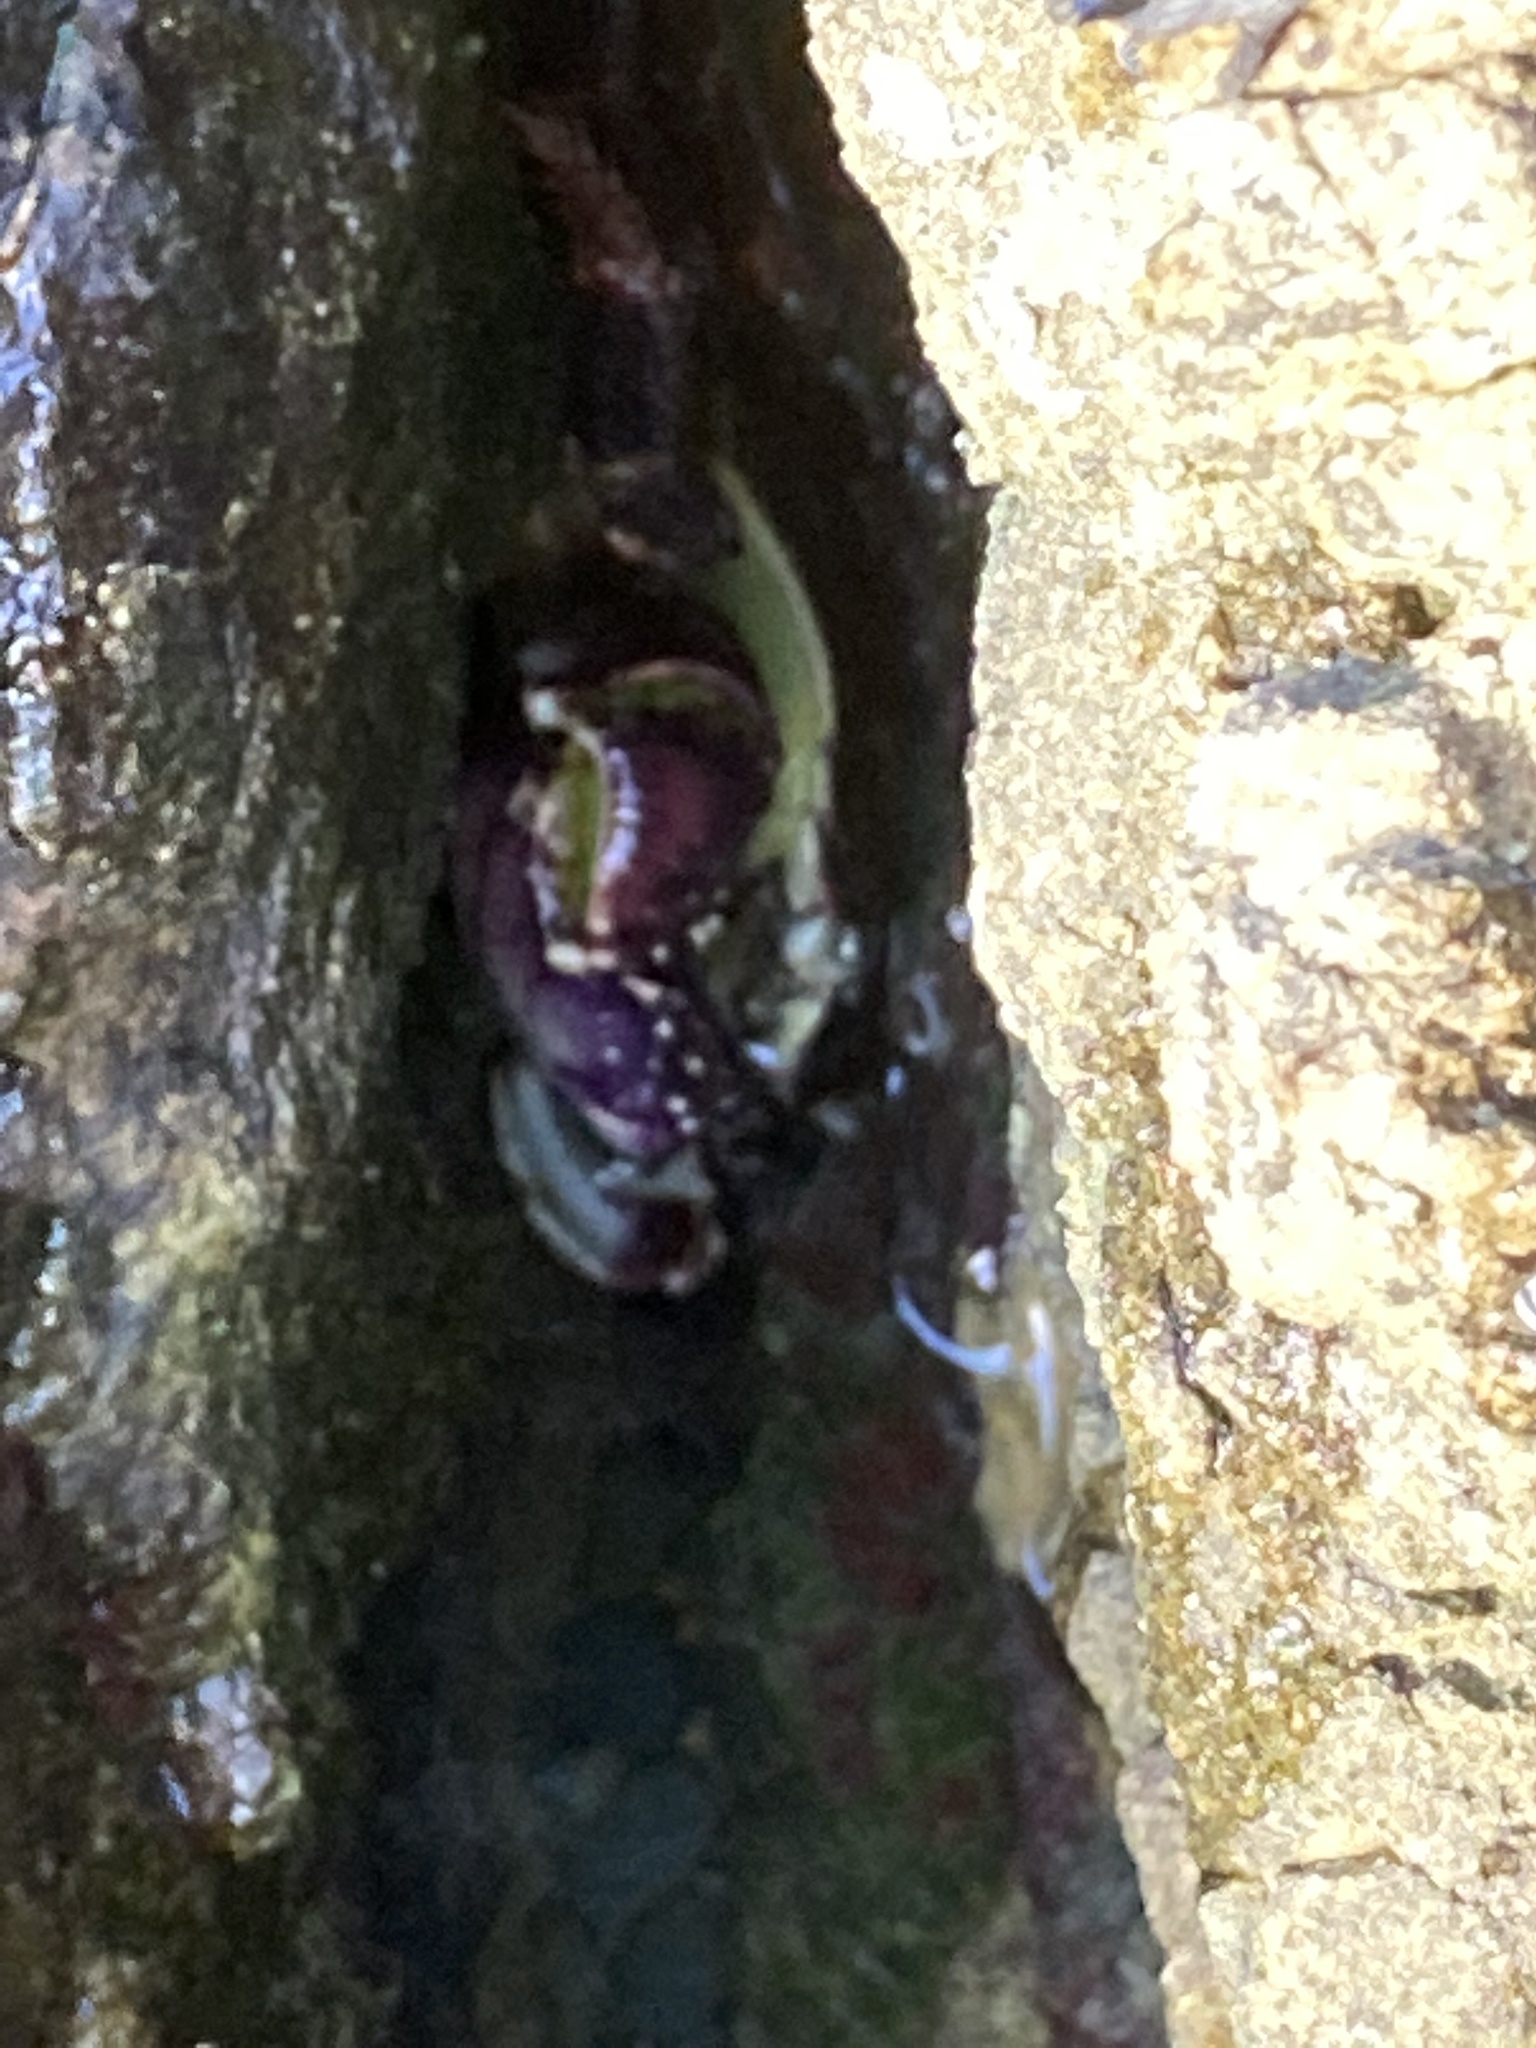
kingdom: Animalia
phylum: Arthropoda
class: Malacostraca
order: Decapoda
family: Grapsidae
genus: Leptograpsus
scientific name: Leptograpsus variegatus
